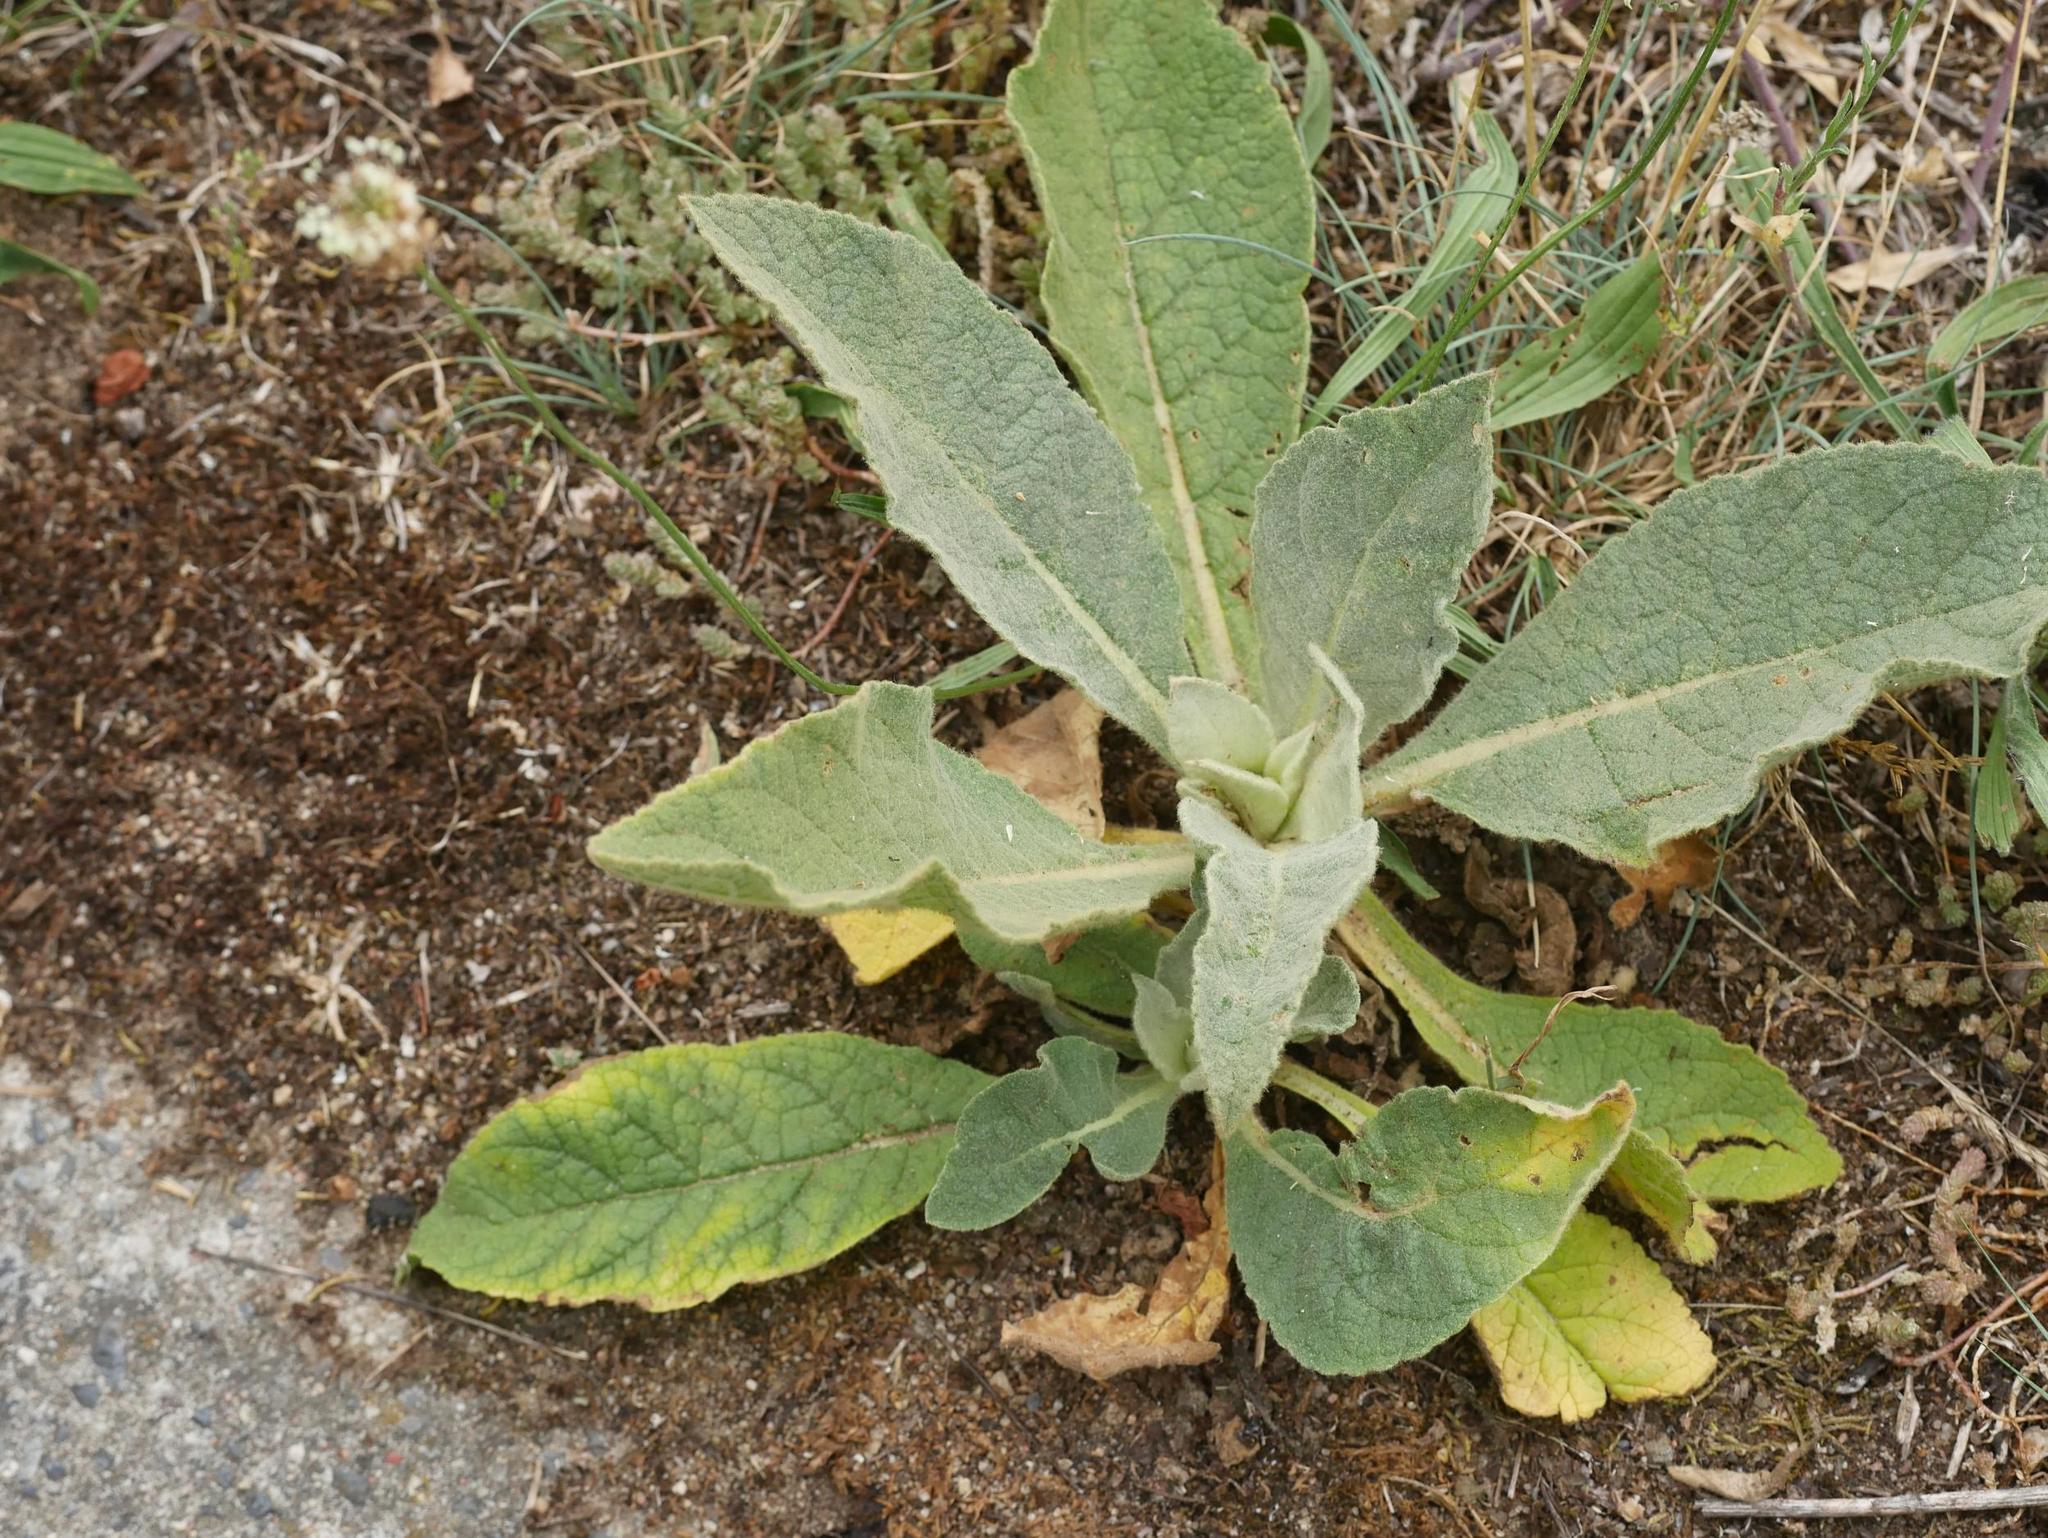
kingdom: Plantae
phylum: Tracheophyta
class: Magnoliopsida
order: Lamiales
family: Scrophulariaceae
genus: Verbascum
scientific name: Verbascum thapsus
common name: Common mullein
